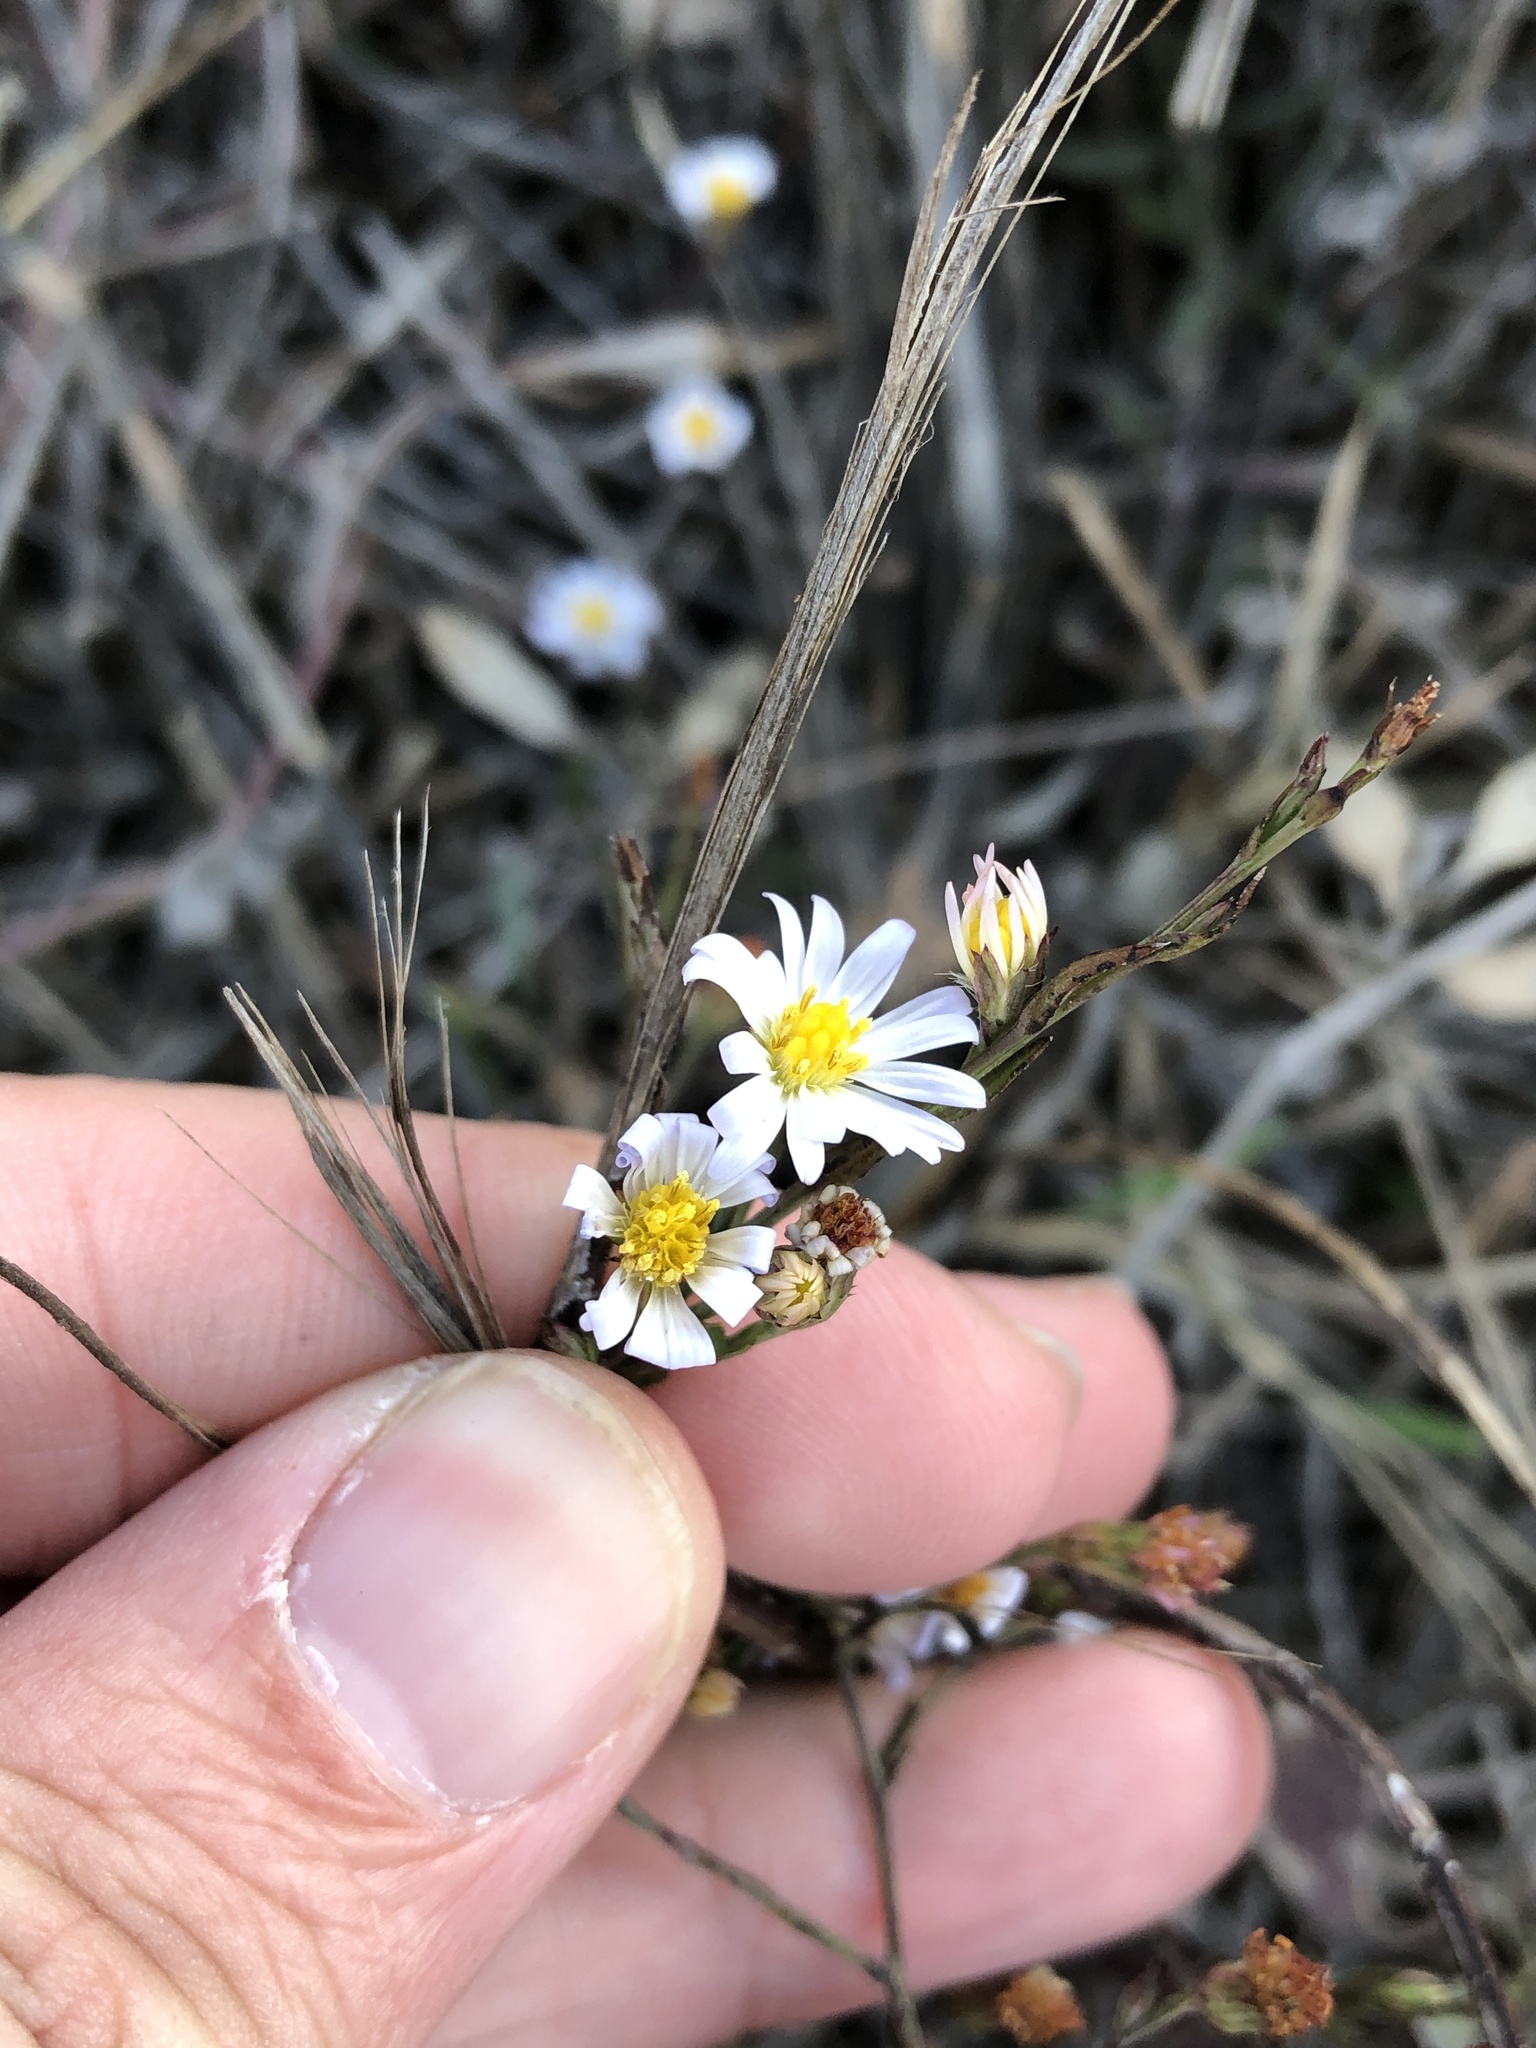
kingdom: Plantae
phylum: Tracheophyta
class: Magnoliopsida
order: Asterales
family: Asteraceae
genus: Symphyotrichum
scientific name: Symphyotrichum divaricatum
